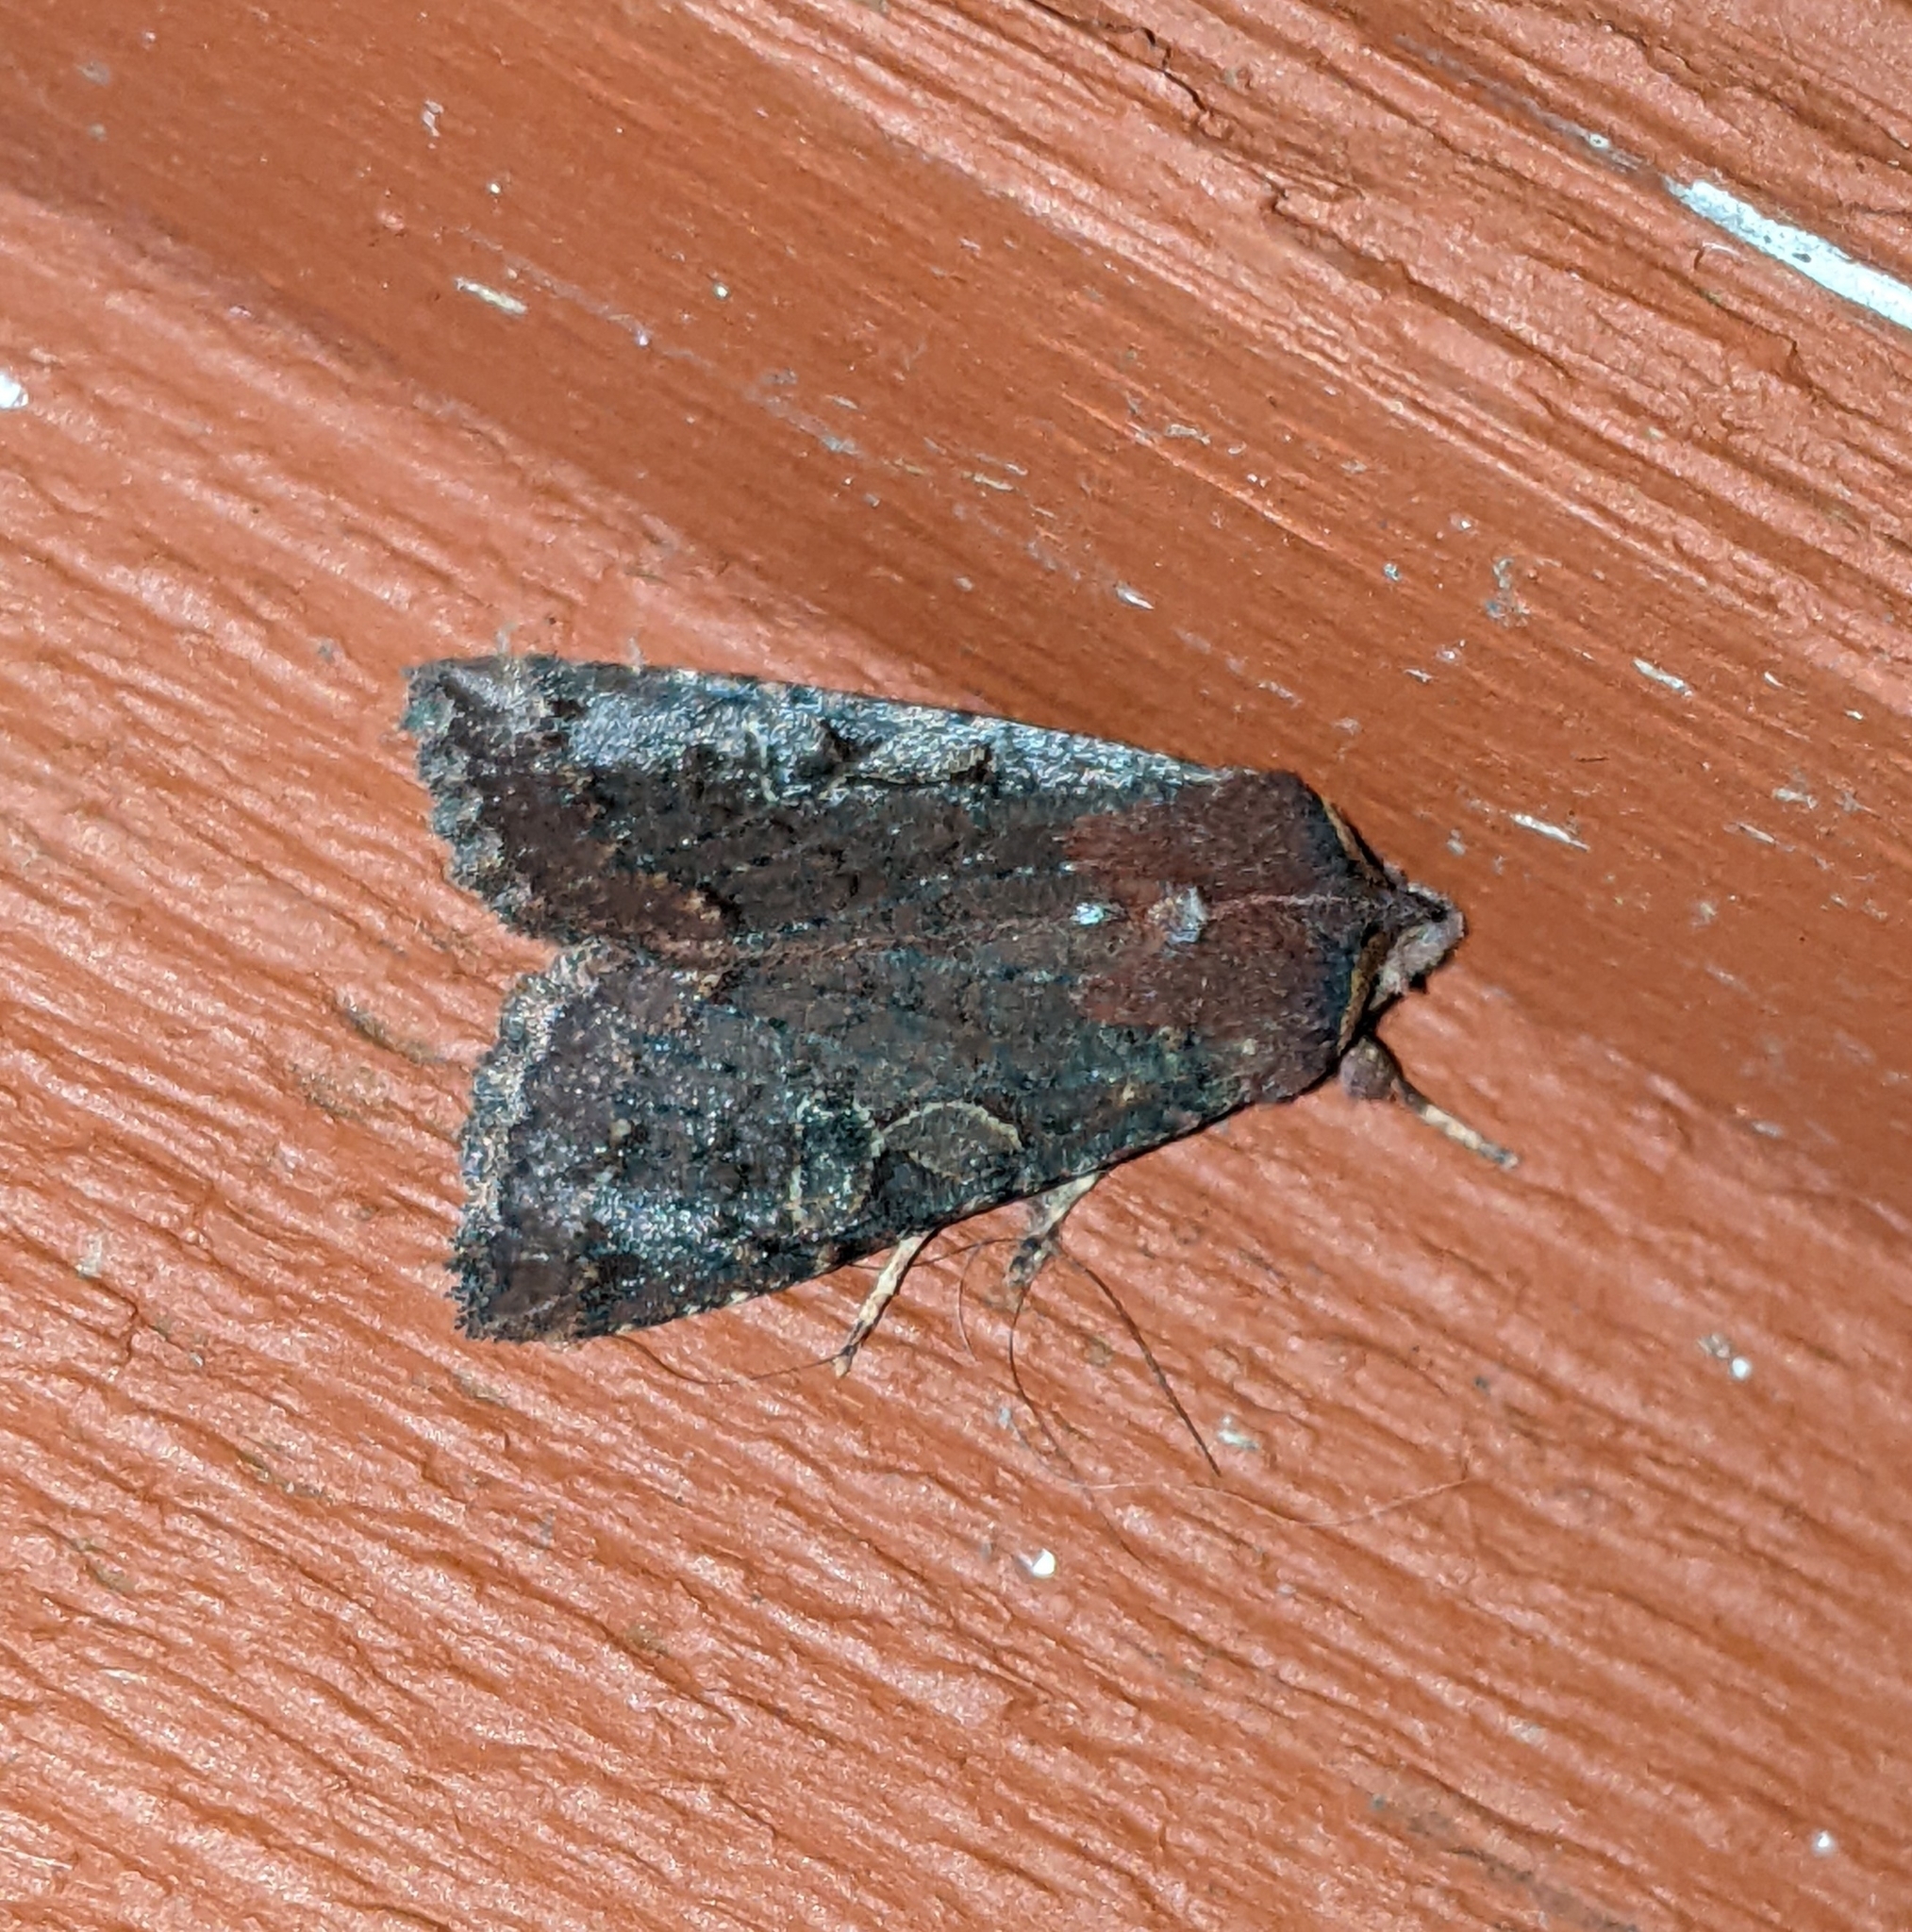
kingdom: Animalia
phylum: Arthropoda
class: Insecta
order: Lepidoptera
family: Noctuidae
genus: Orthosia
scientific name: Orthosia praeses
